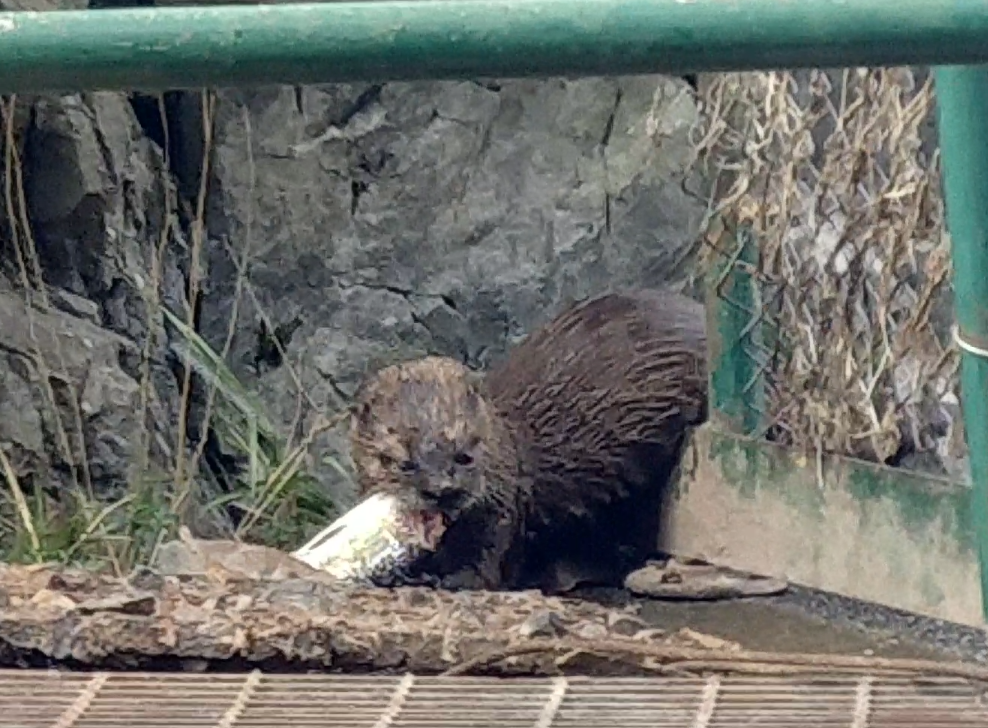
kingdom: Animalia
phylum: Chordata
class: Mammalia
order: Carnivora
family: Mustelidae
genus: Lontra
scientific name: Lontra canadensis
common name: North american river otter
